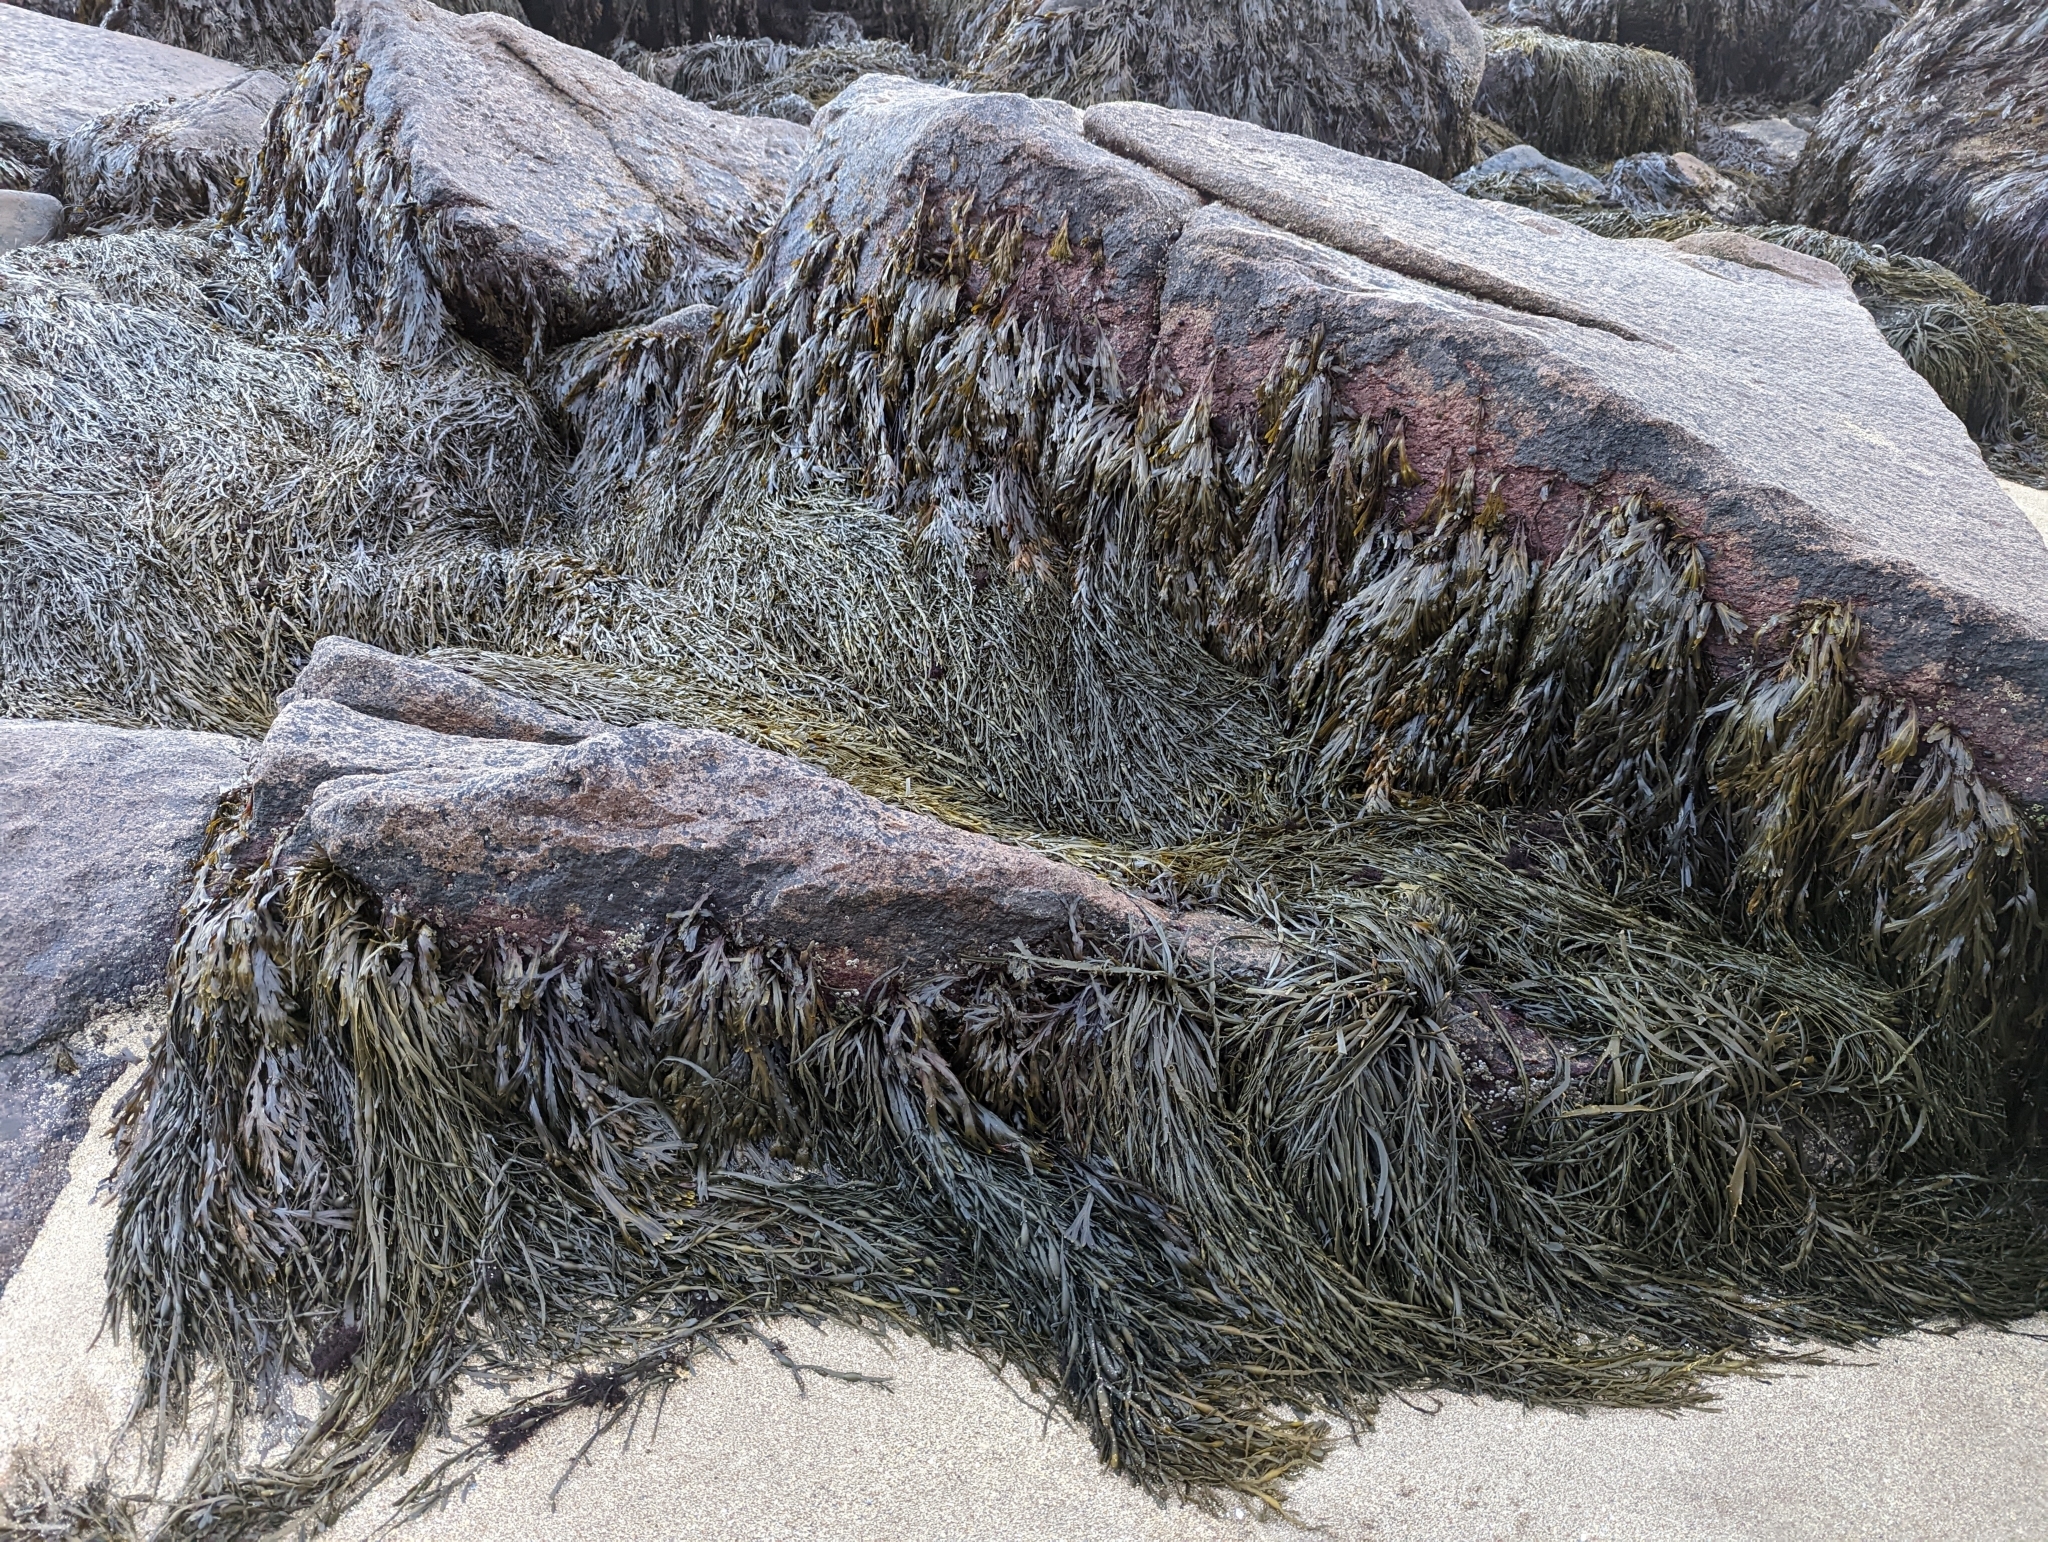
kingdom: Chromista
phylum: Ochrophyta
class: Phaeophyceae
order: Fucales
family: Fucaceae
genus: Ascophyllum
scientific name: Ascophyllum nodosum
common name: Knotted wrack
